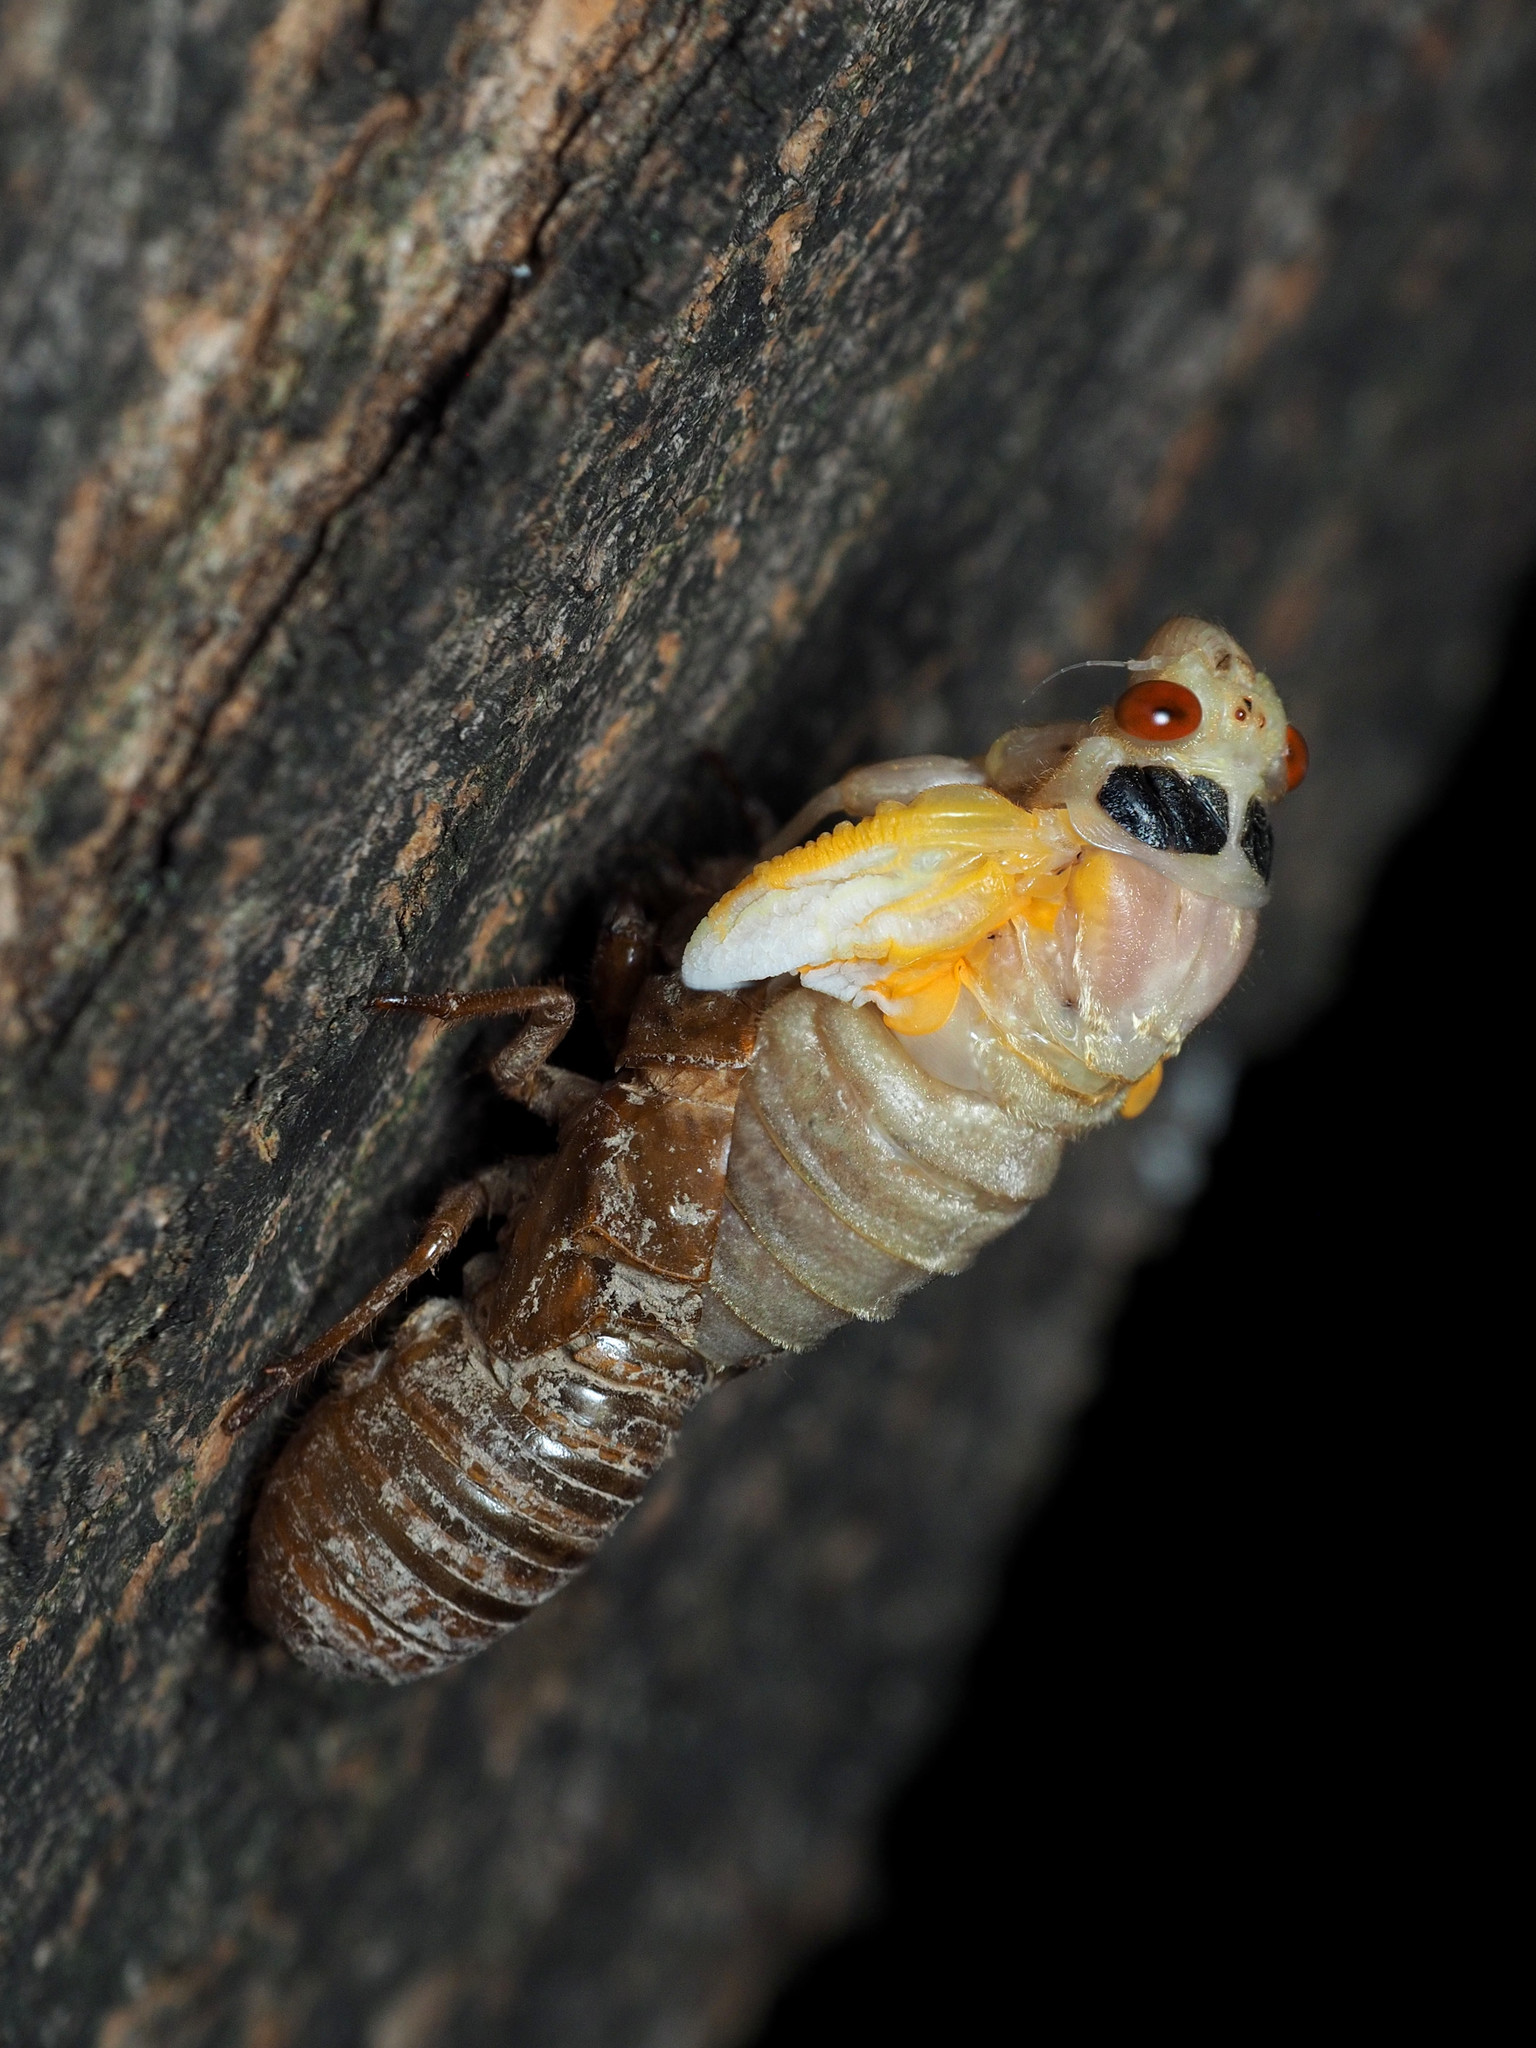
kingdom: Animalia
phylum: Arthropoda
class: Insecta
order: Hemiptera
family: Cicadidae
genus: Magicicada
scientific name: Magicicada
